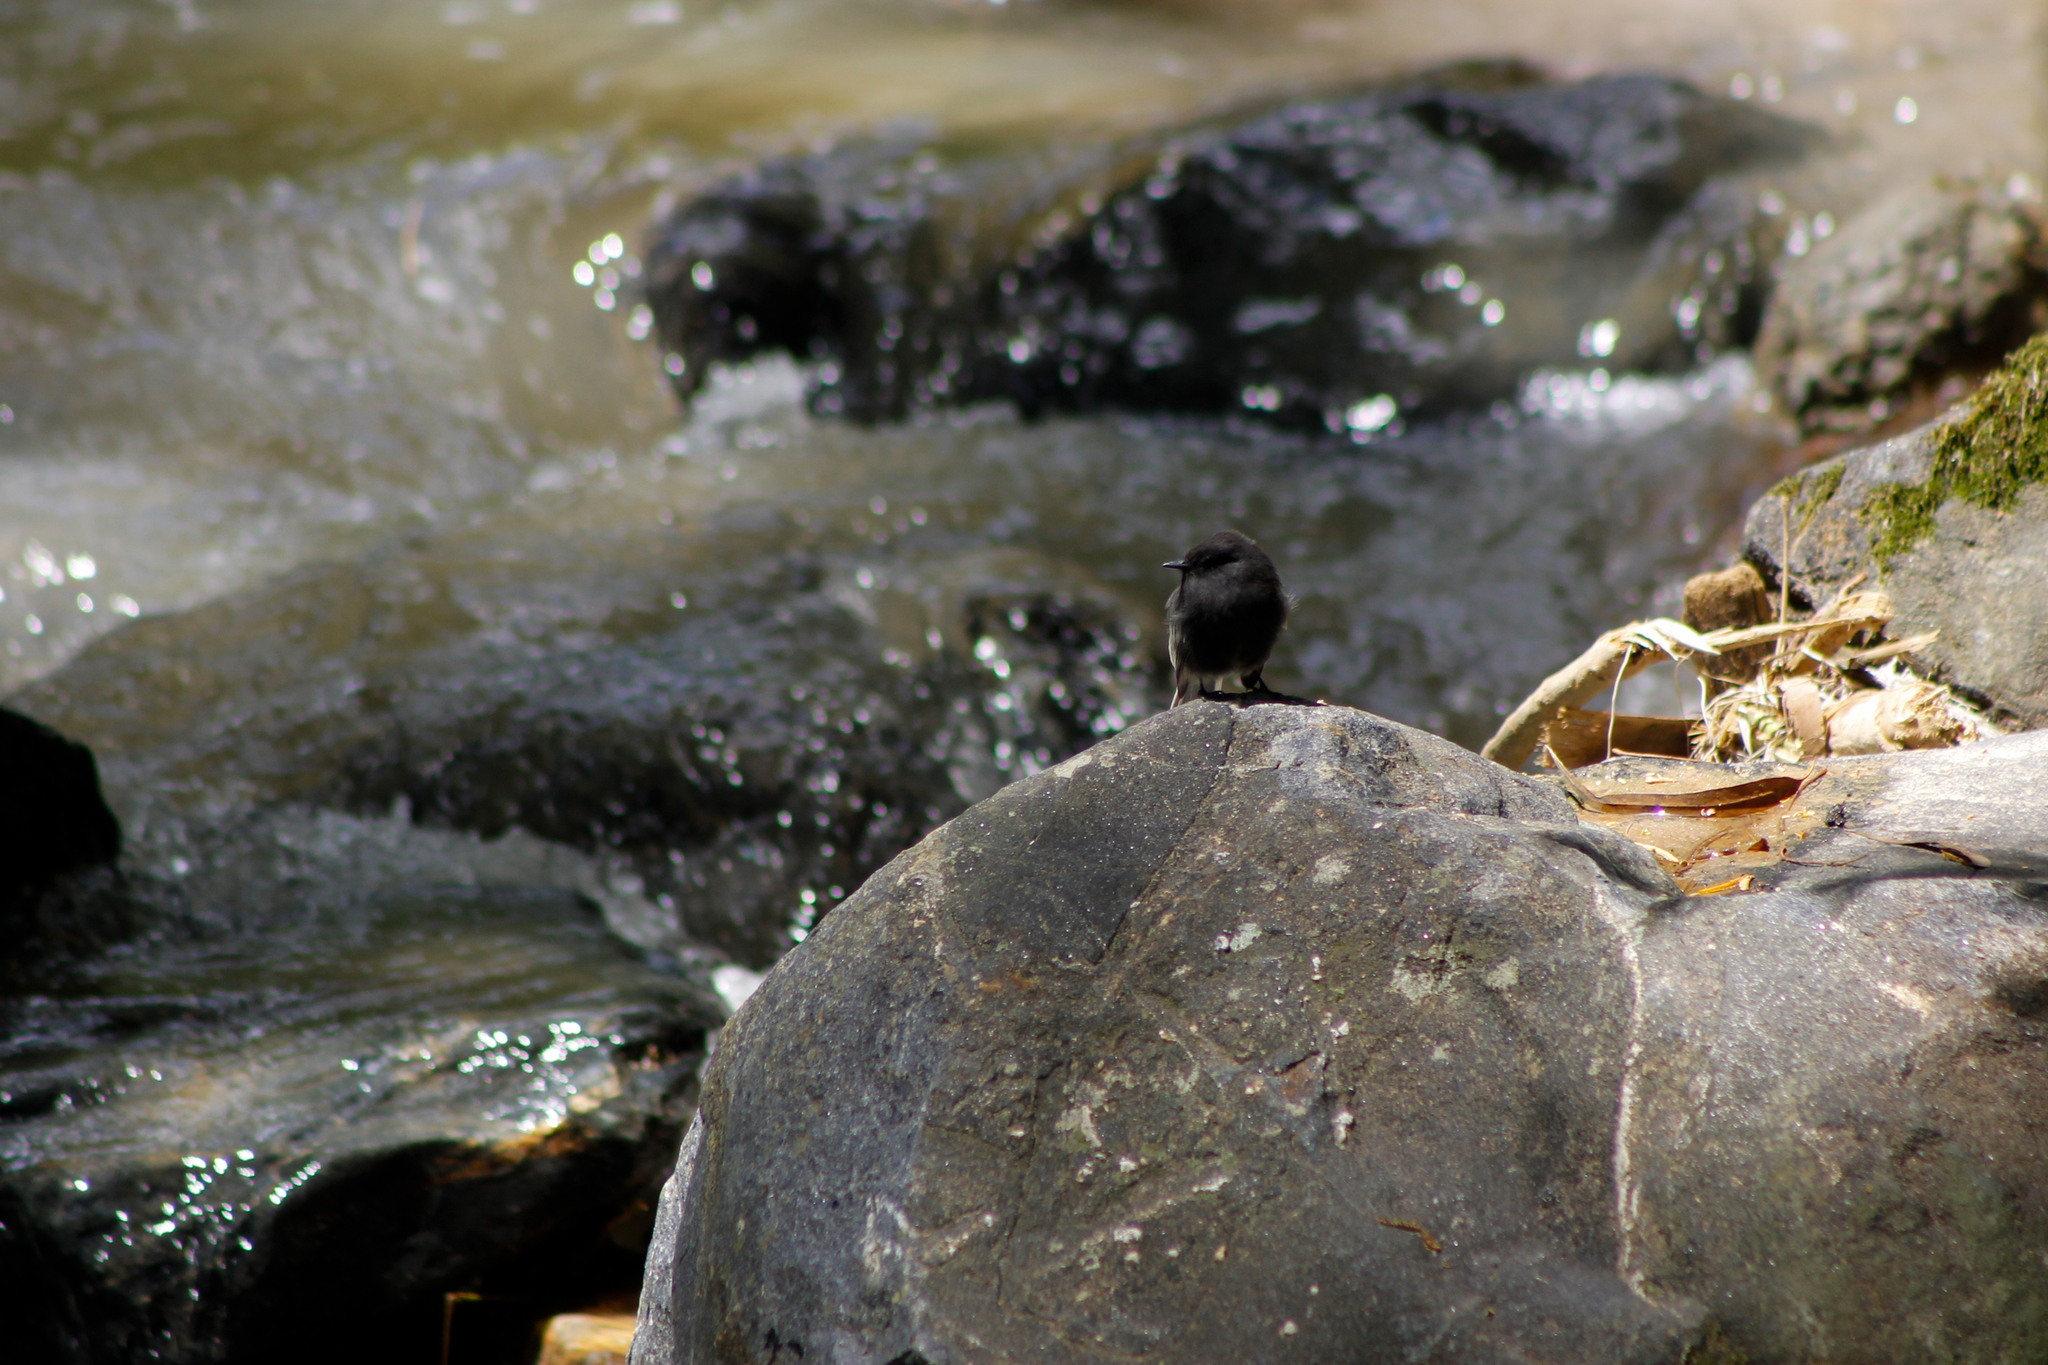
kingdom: Animalia
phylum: Chordata
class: Aves
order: Passeriformes
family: Tyrannidae
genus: Sayornis
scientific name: Sayornis nigricans
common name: Black phoebe
